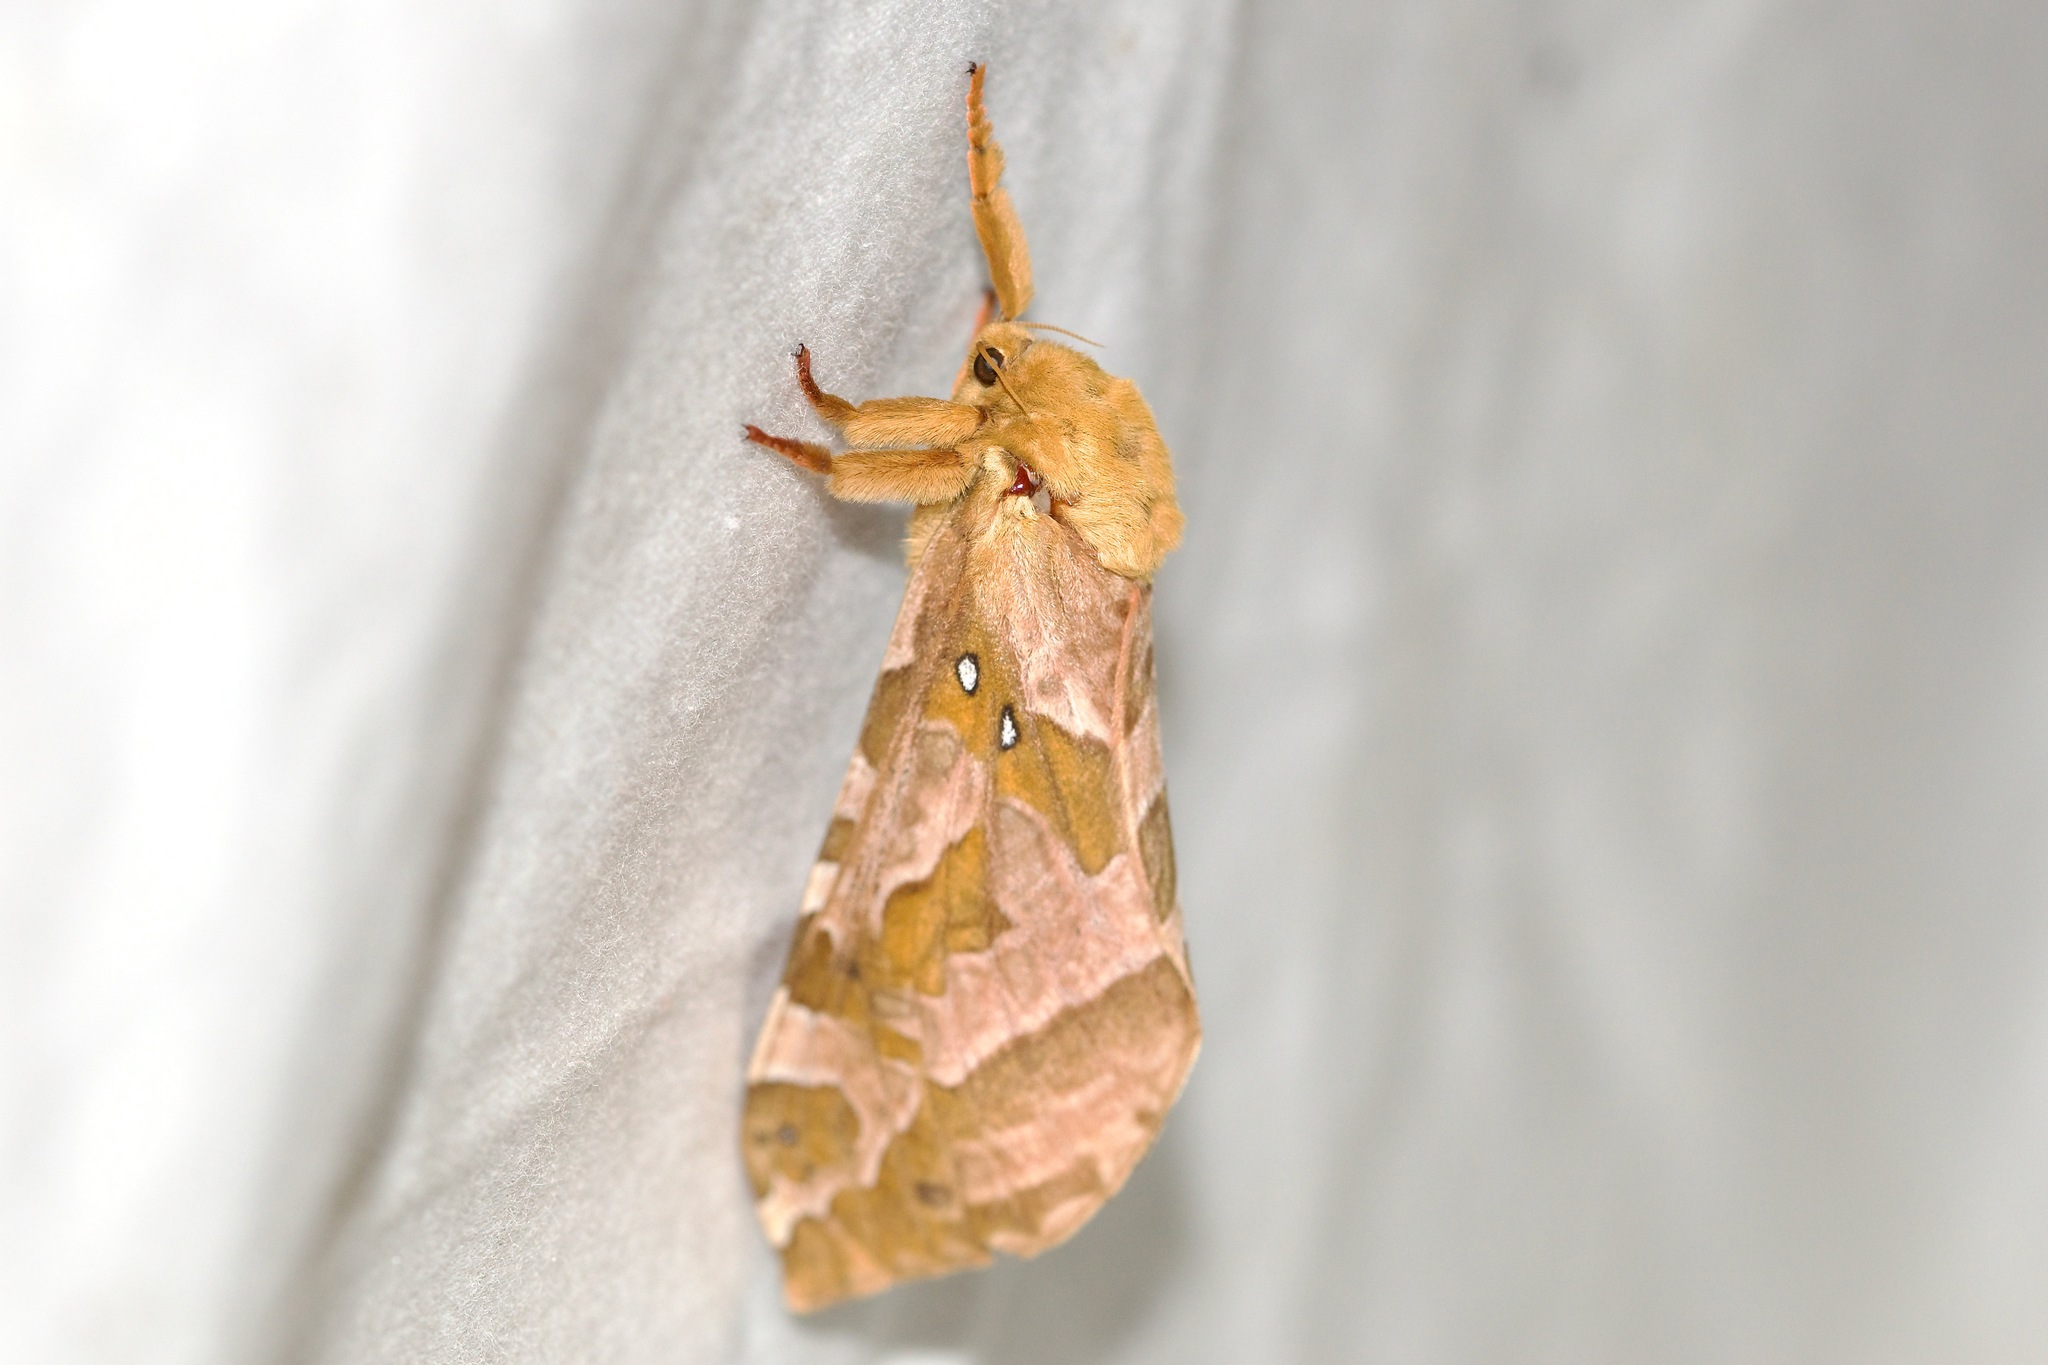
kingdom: Animalia
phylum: Arthropoda
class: Insecta
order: Lepidoptera
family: Hepialidae
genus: Sthenopis
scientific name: Sthenopis purpurascens
